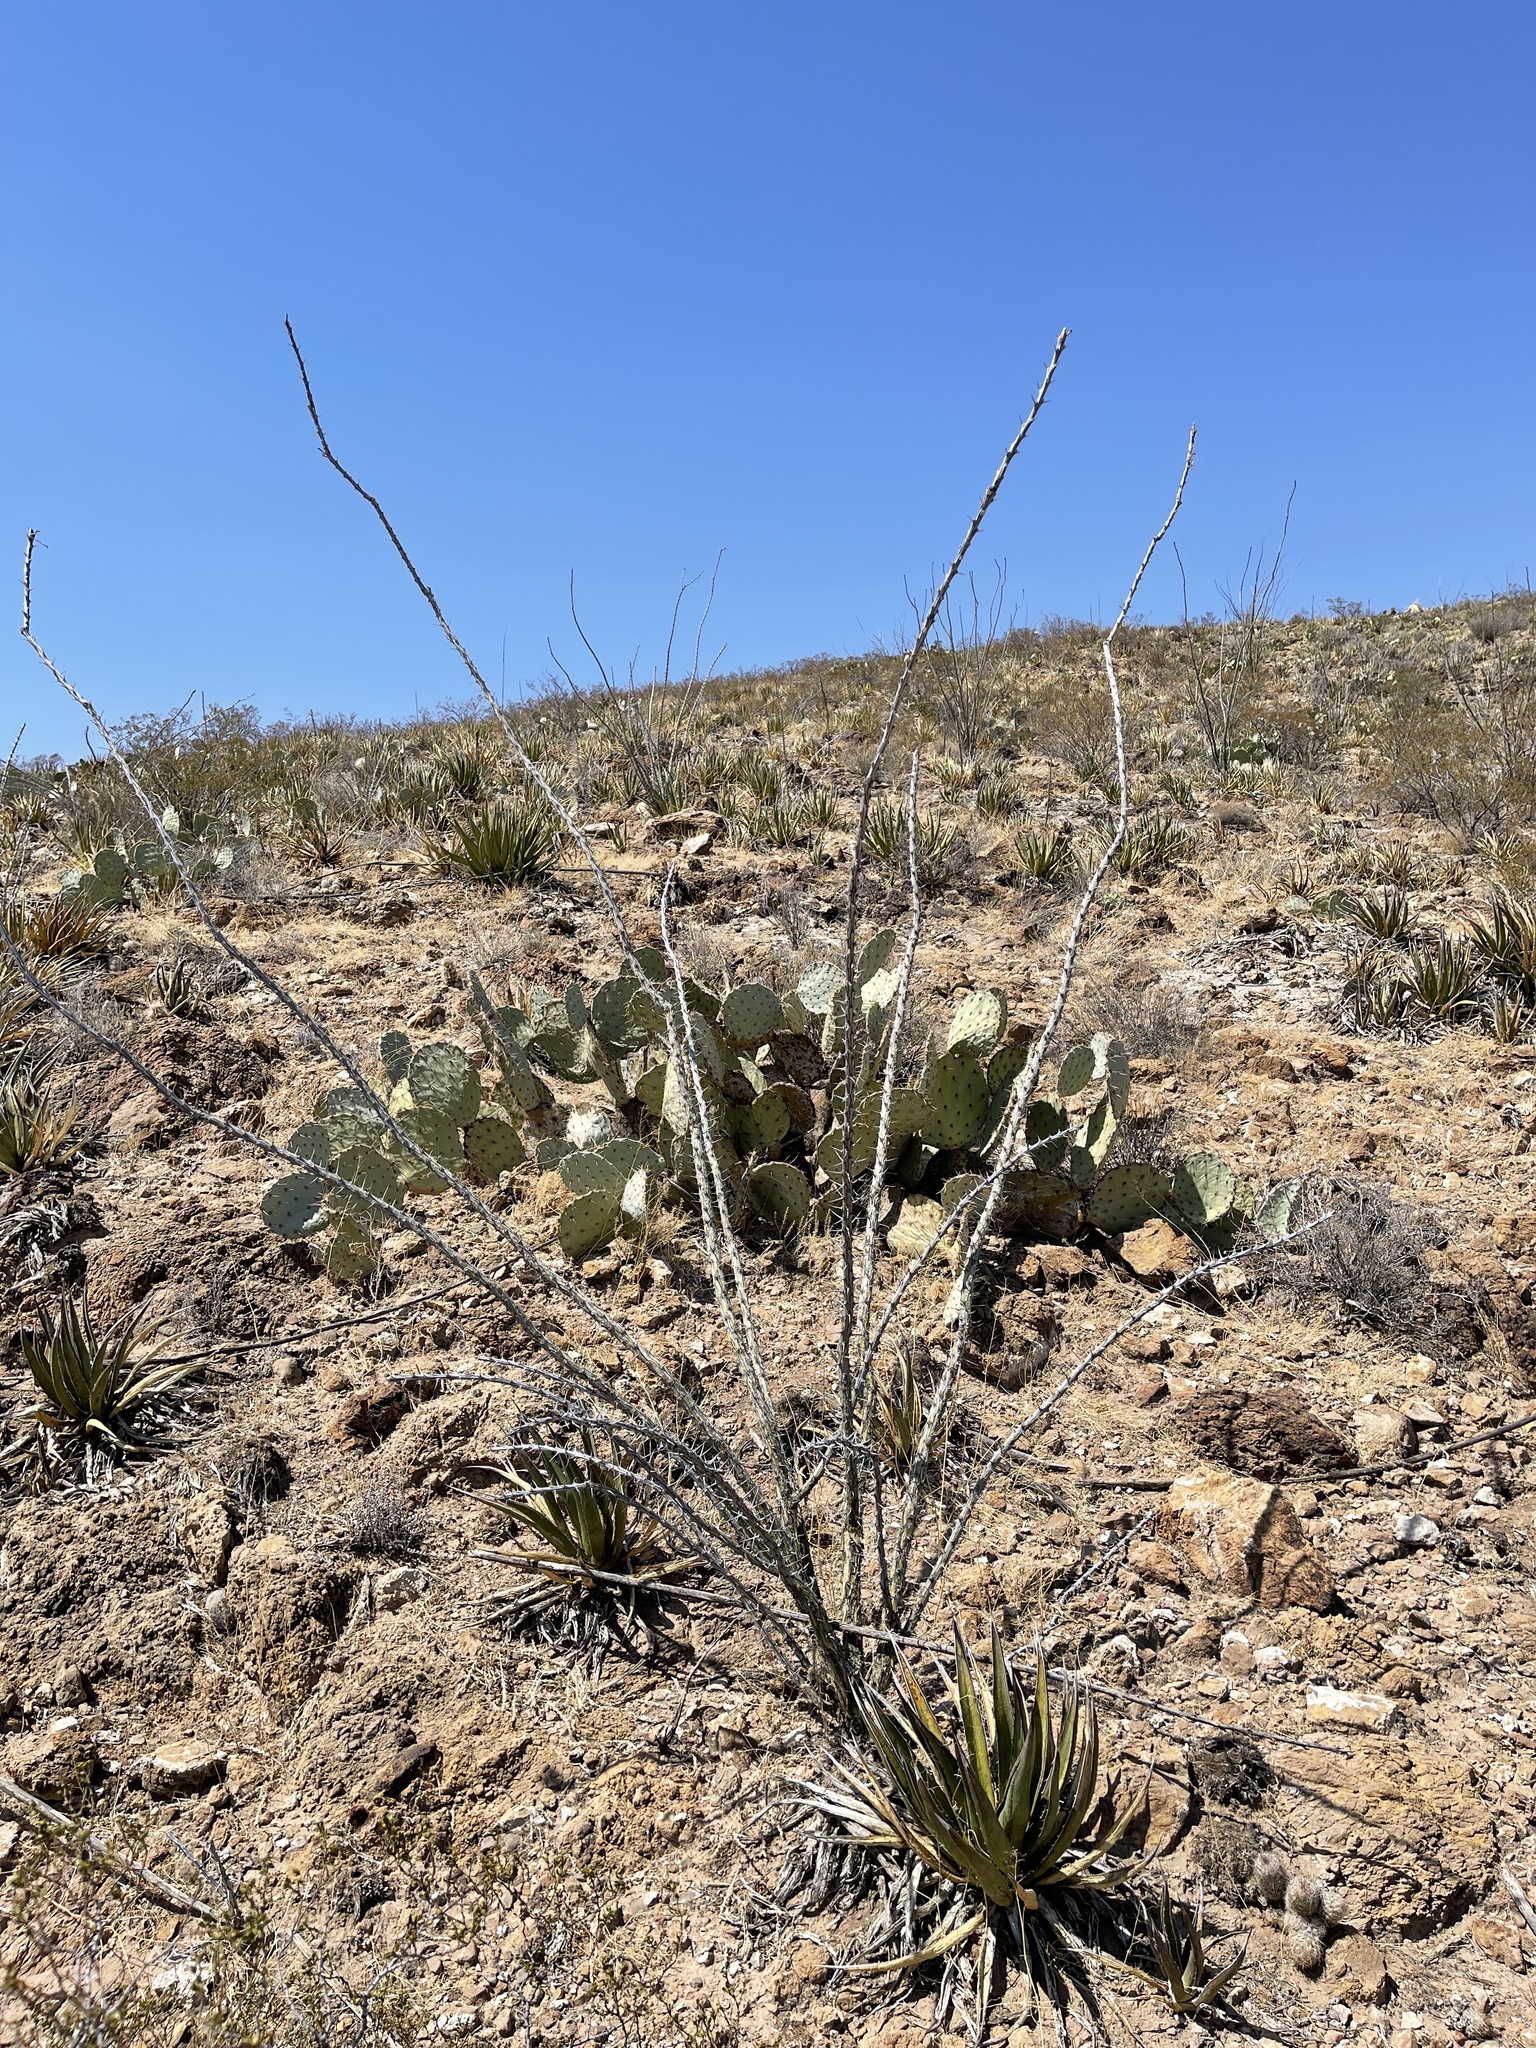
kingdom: Plantae
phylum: Tracheophyta
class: Magnoliopsida
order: Ericales
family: Fouquieriaceae
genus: Fouquieria
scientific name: Fouquieria splendens
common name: Vine-cactus
